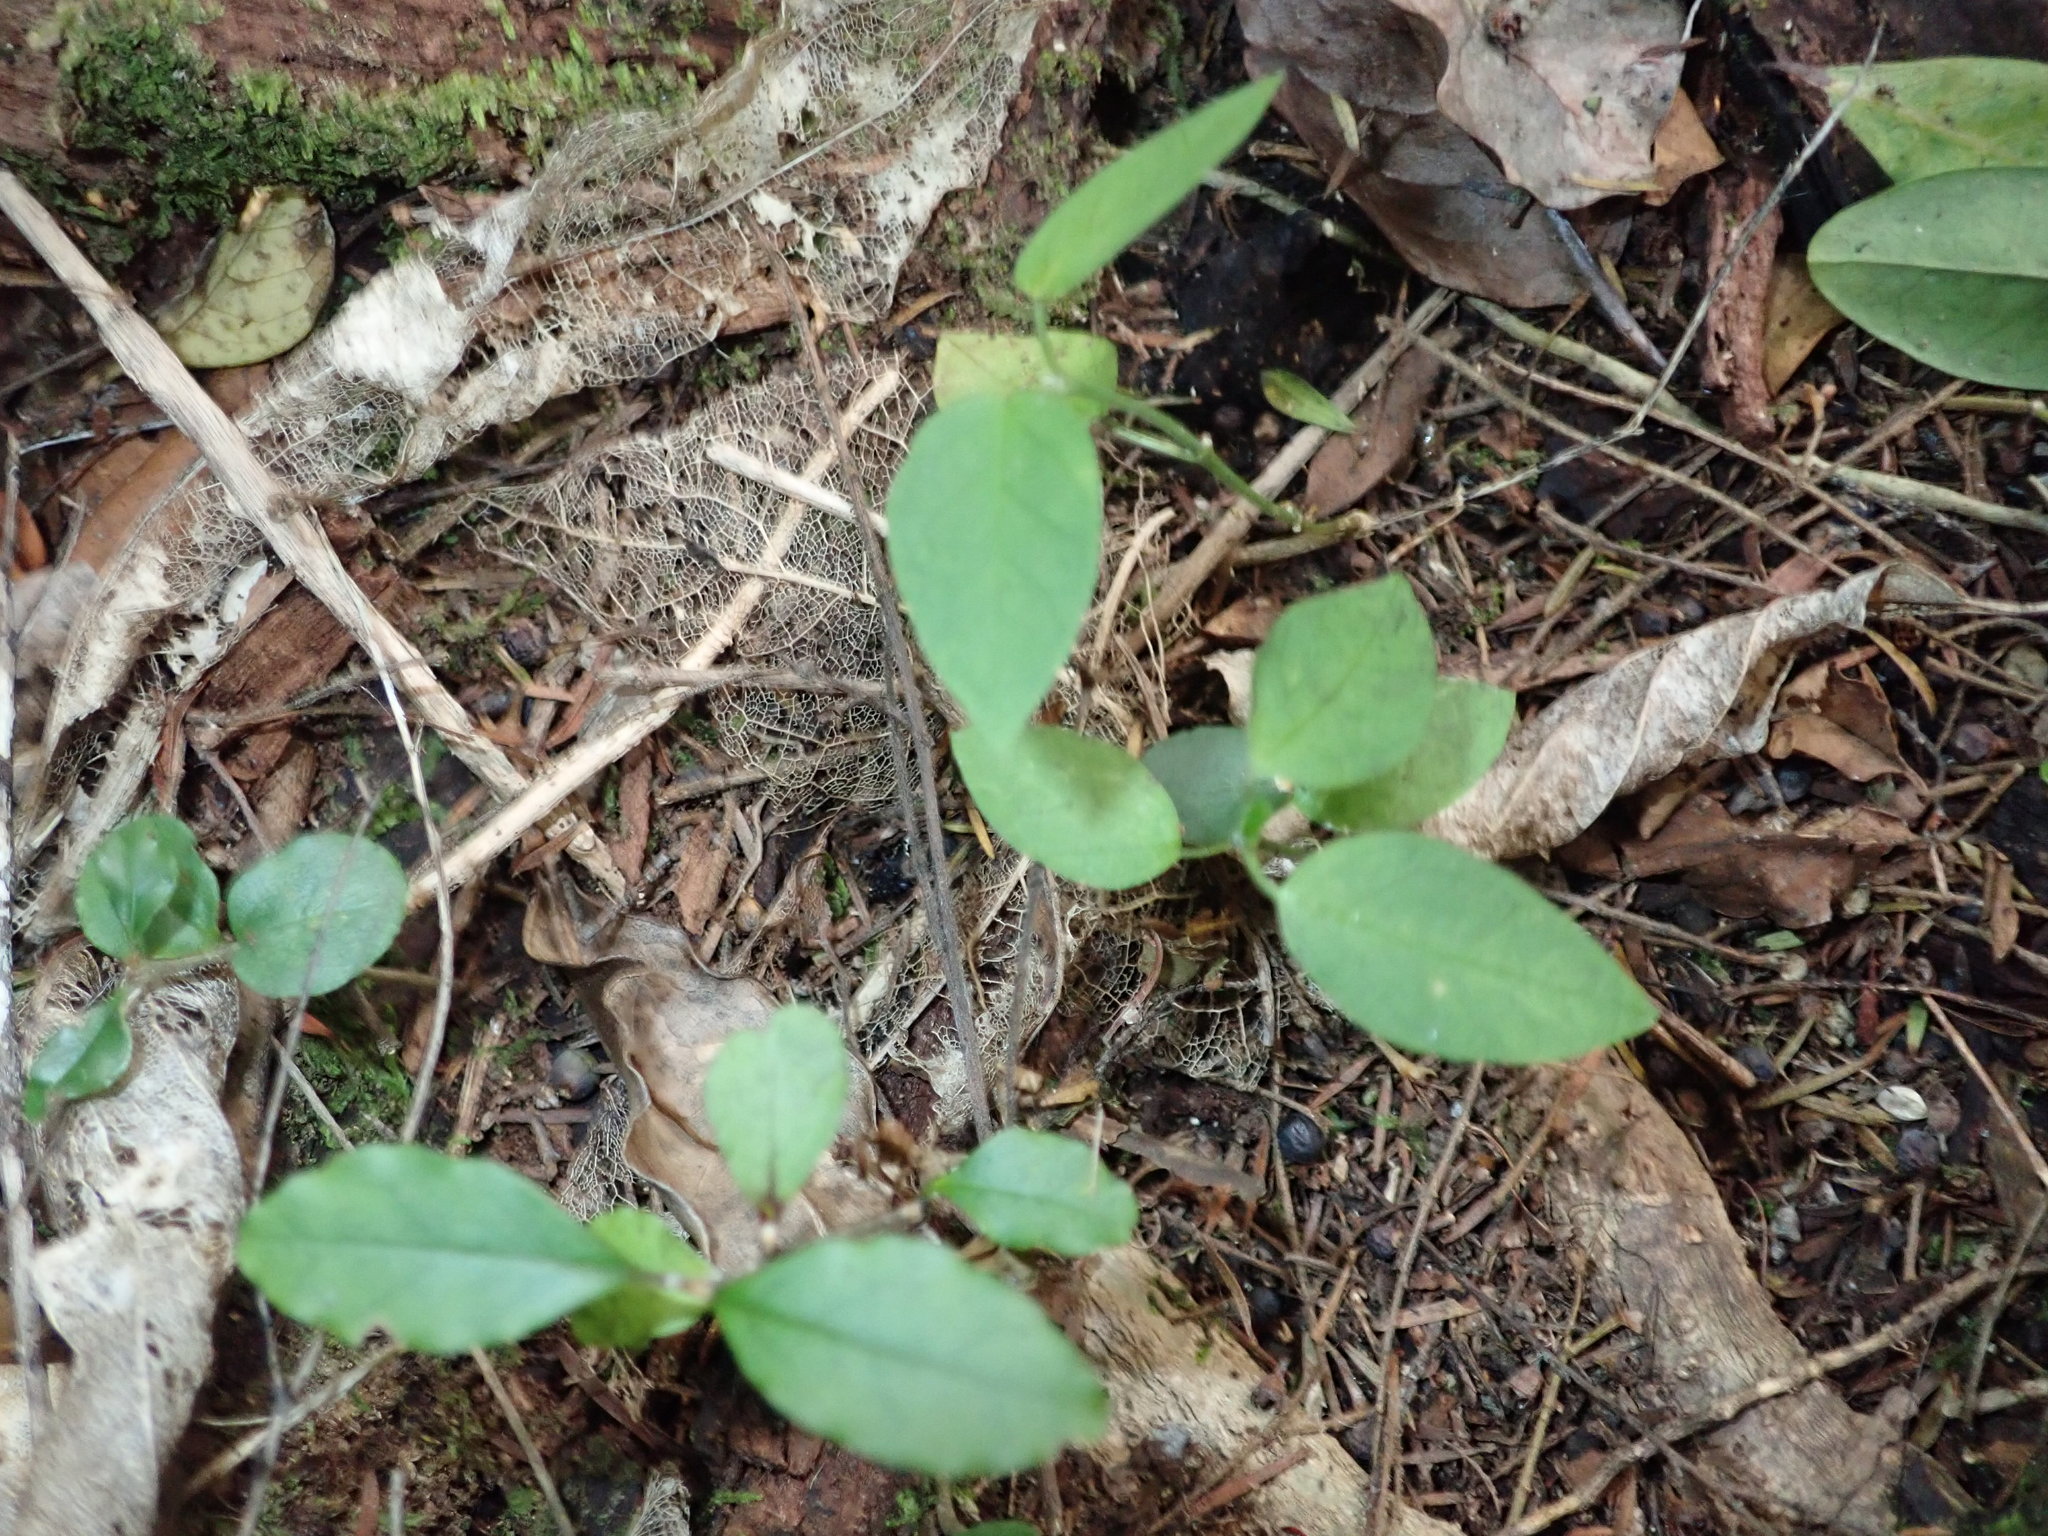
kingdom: Plantae
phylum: Tracheophyta
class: Magnoliopsida
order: Gentianales
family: Apocynaceae
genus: Araujia
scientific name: Araujia sericifera
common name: White bladderflower
